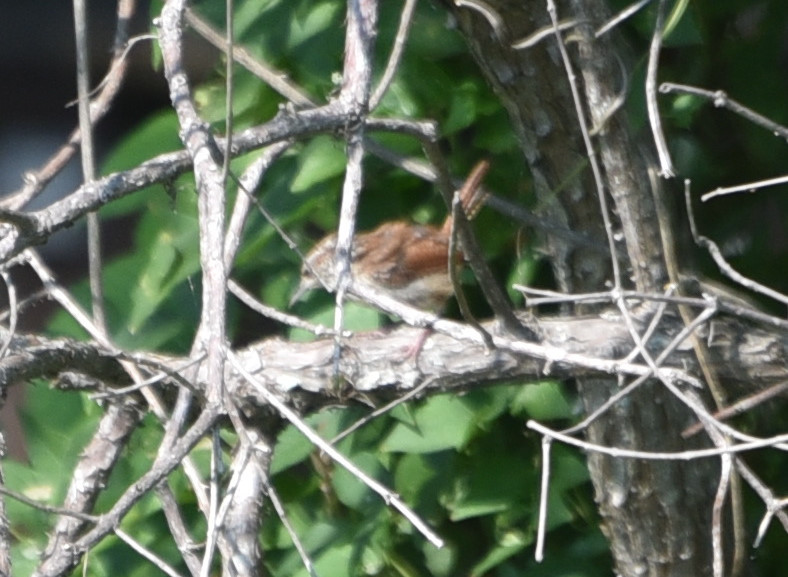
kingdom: Animalia
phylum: Chordata
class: Aves
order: Passeriformes
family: Troglodytidae
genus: Thryothorus
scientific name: Thryothorus ludovicianus
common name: Carolina wren
